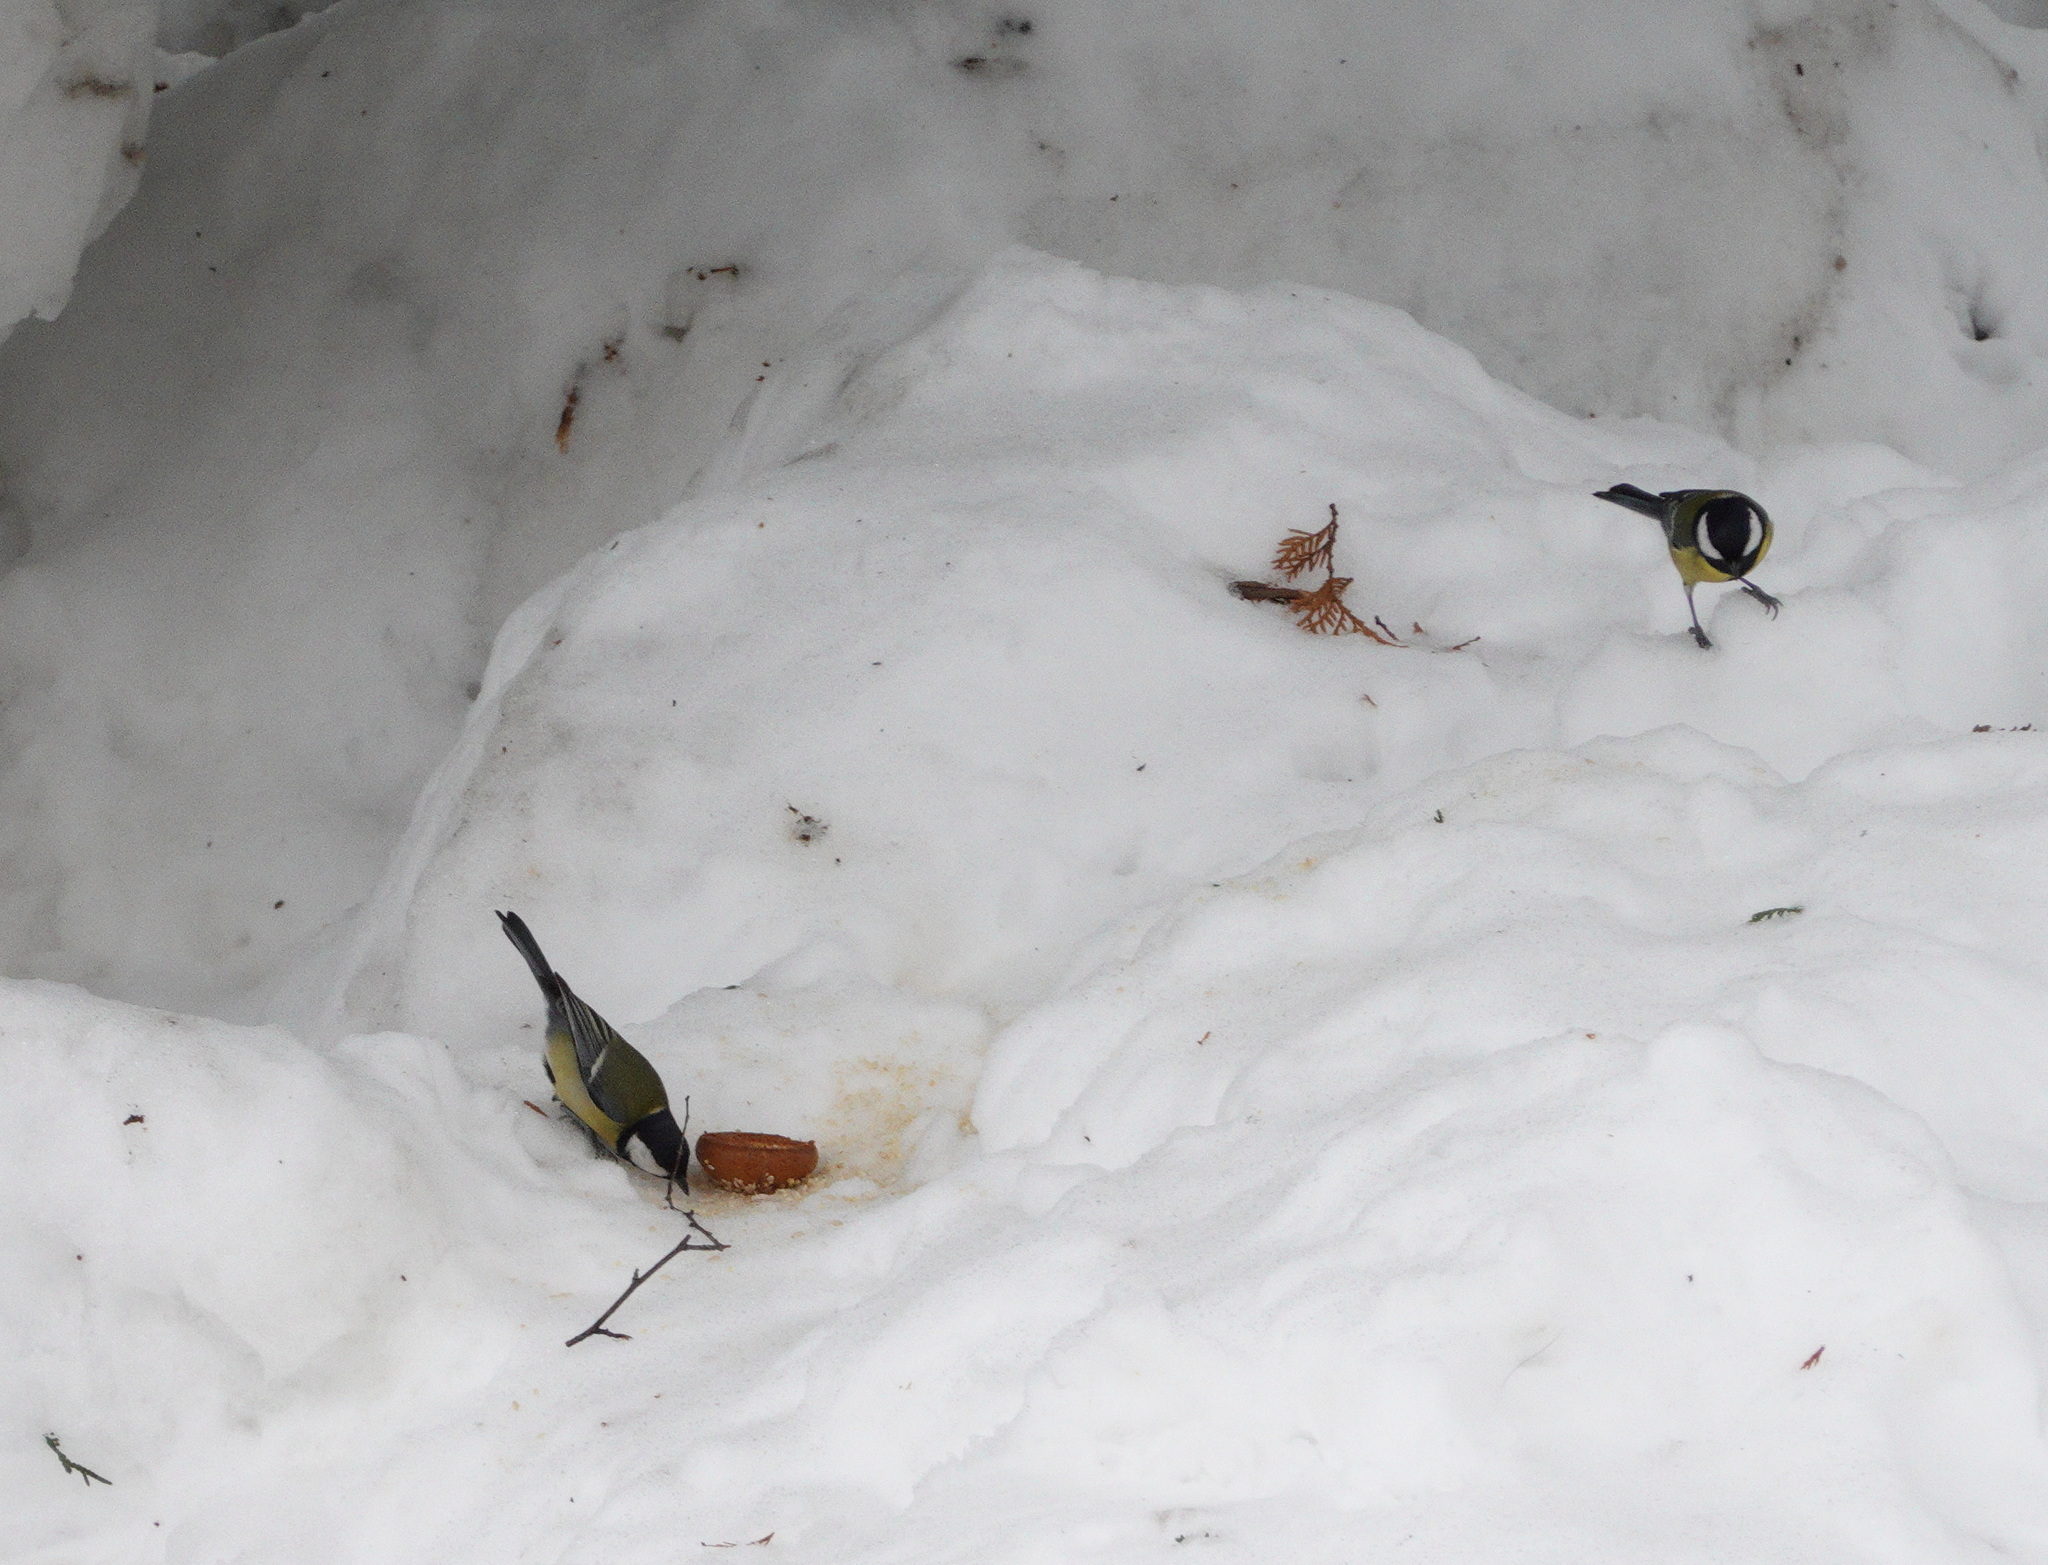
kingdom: Animalia
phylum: Chordata
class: Aves
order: Passeriformes
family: Paridae
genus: Parus
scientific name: Parus major
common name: Great tit
